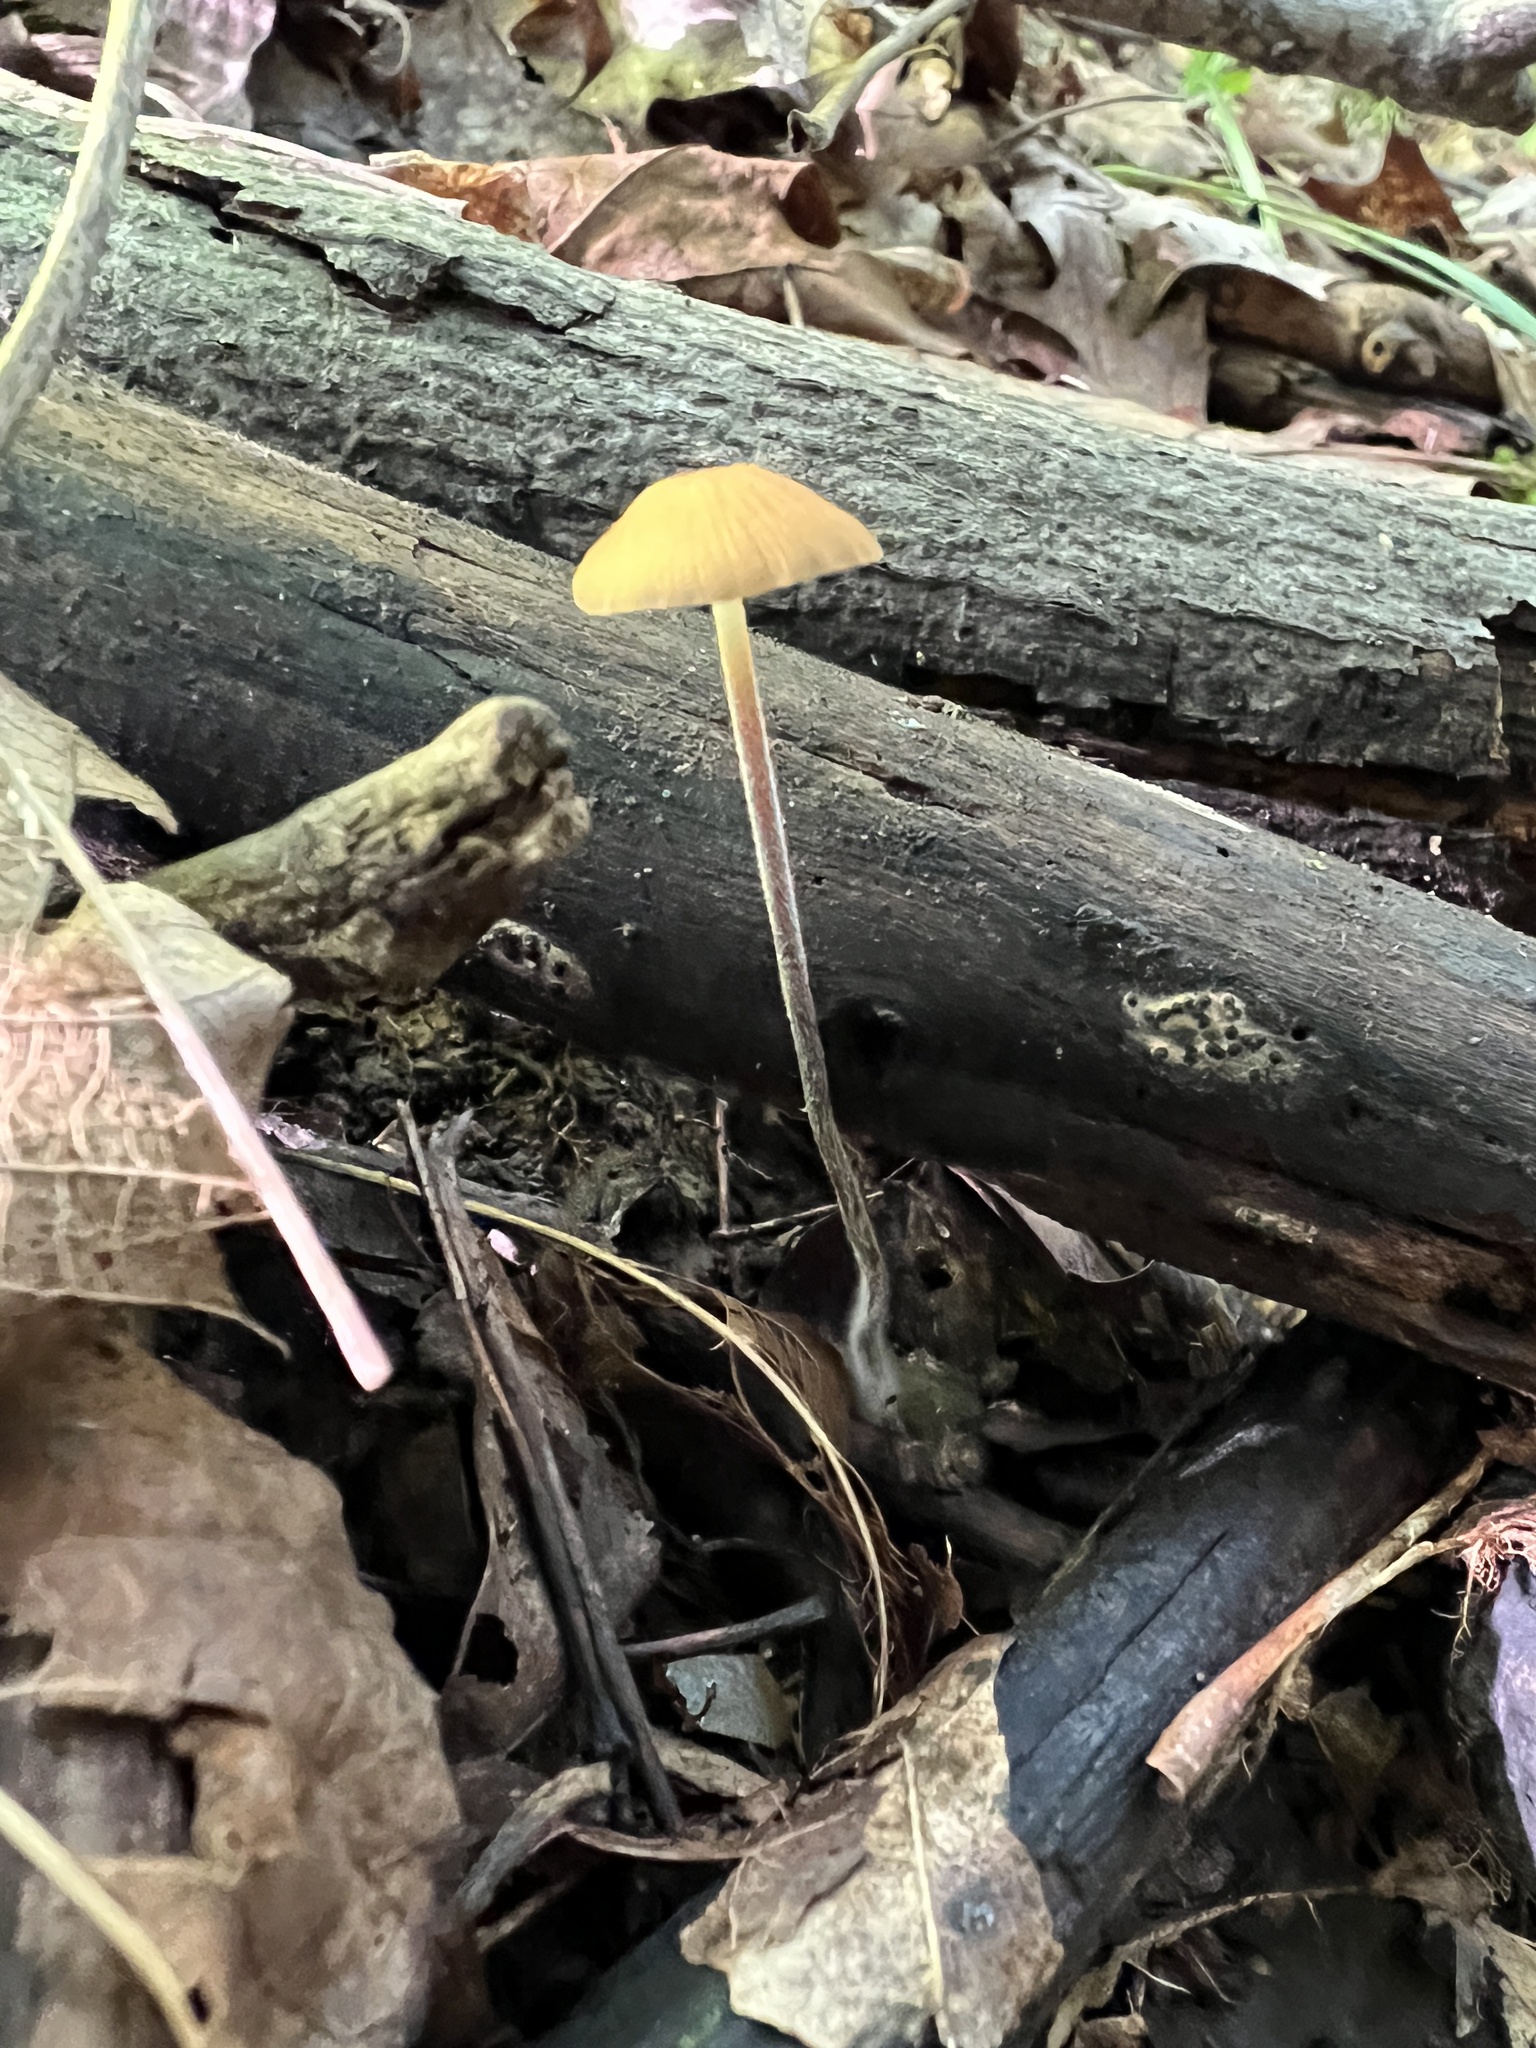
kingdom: Fungi
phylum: Basidiomycota
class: Agaricomycetes
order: Agaricales
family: Physalacriaceae
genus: Rhizomarasmius
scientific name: Rhizomarasmius pyrrhocephalus
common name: Hairy long stem marasmius
